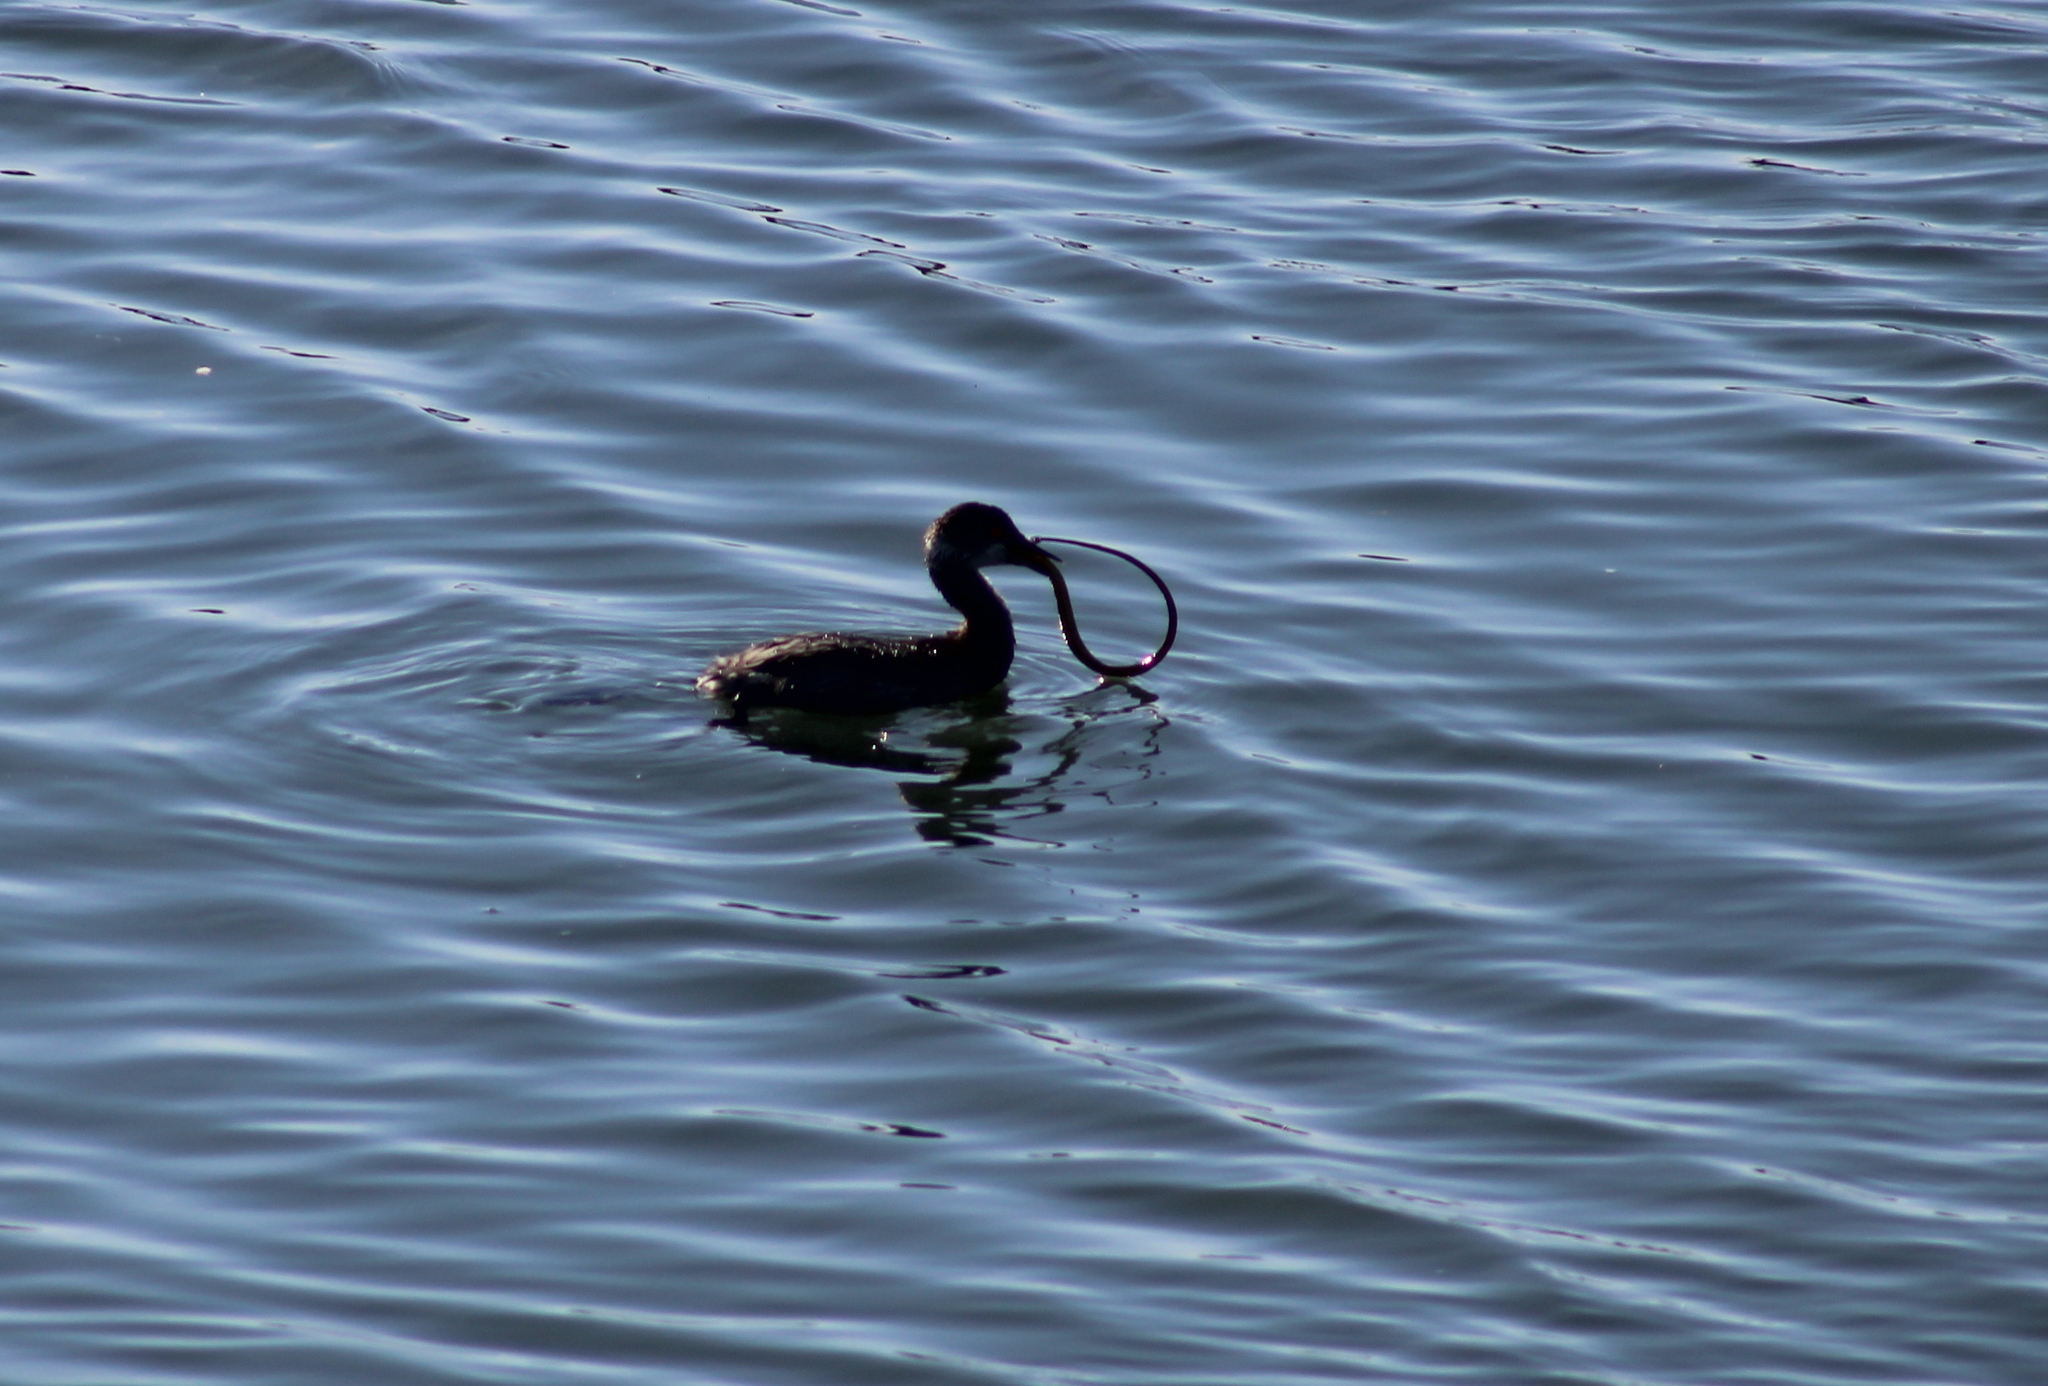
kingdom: Animalia
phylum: Chordata
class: Aves
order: Podicipediformes
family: Podicipedidae
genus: Podiceps
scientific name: Podiceps nigricollis
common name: Black-necked grebe
